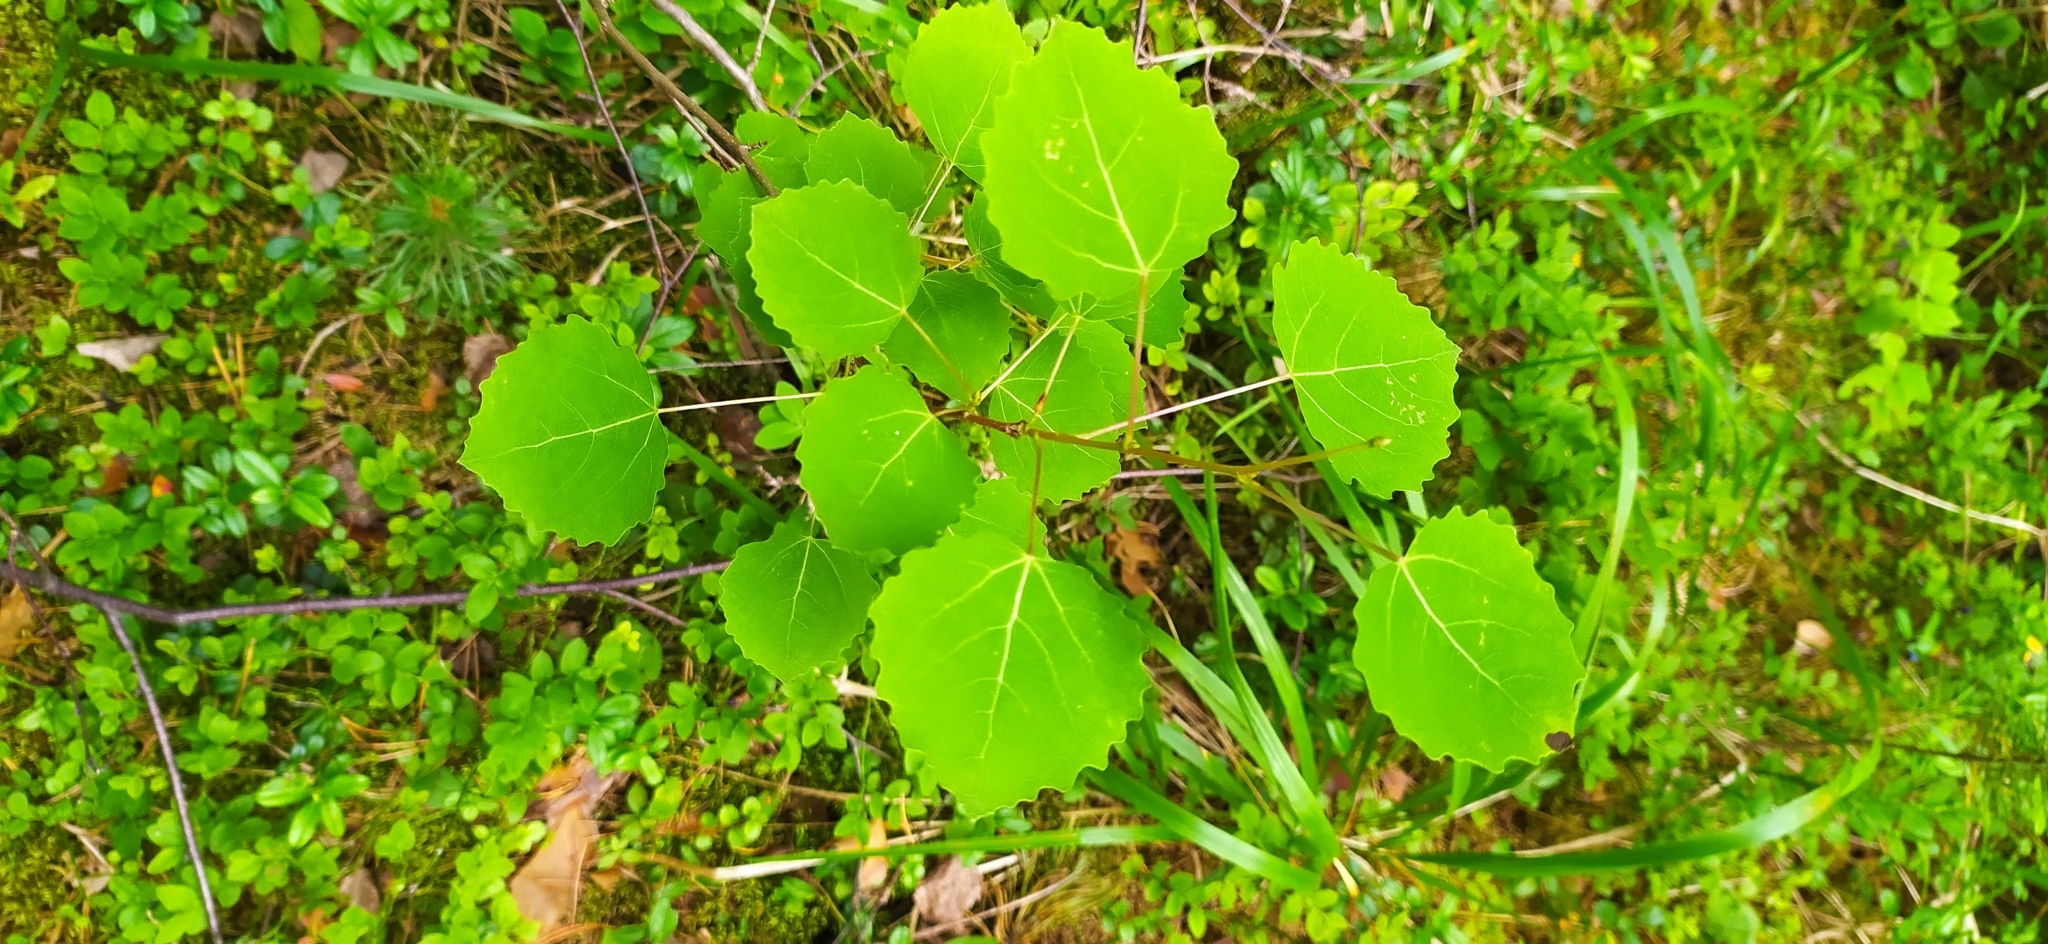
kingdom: Plantae
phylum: Tracheophyta
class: Magnoliopsida
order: Malpighiales
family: Salicaceae
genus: Populus
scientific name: Populus tremula
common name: European aspen
